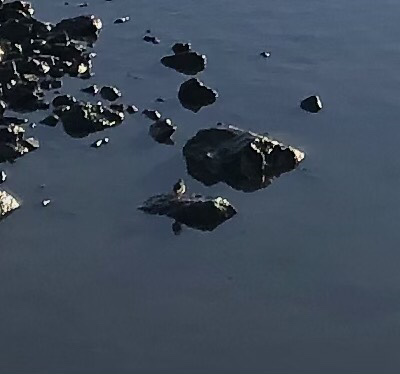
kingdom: Animalia
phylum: Chordata
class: Aves
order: Charadriiformes
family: Scolopacidae
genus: Actitis
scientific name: Actitis macularius
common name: Spotted sandpiper
